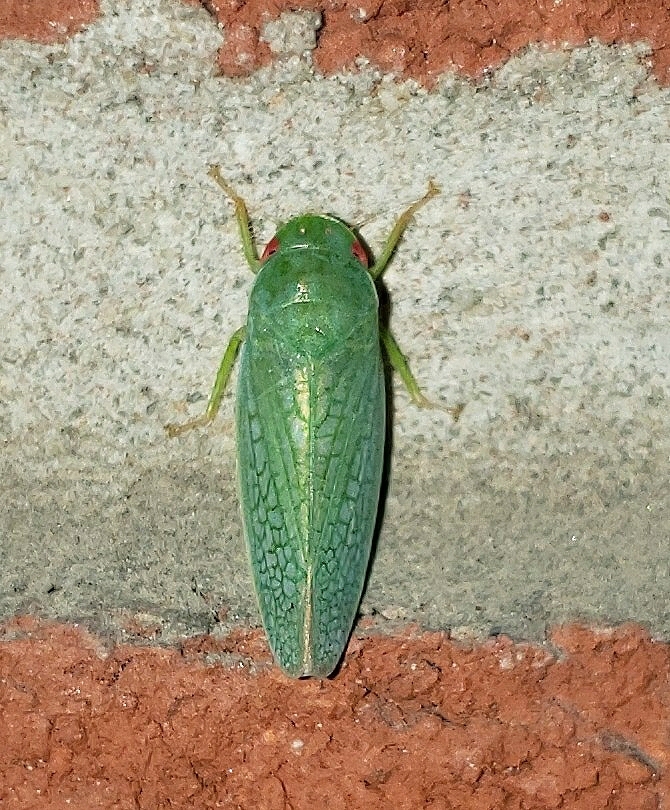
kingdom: Animalia
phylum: Arthropoda
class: Insecta
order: Hemiptera
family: Cicadellidae
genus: Rugosana
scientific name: Rugosana querci
